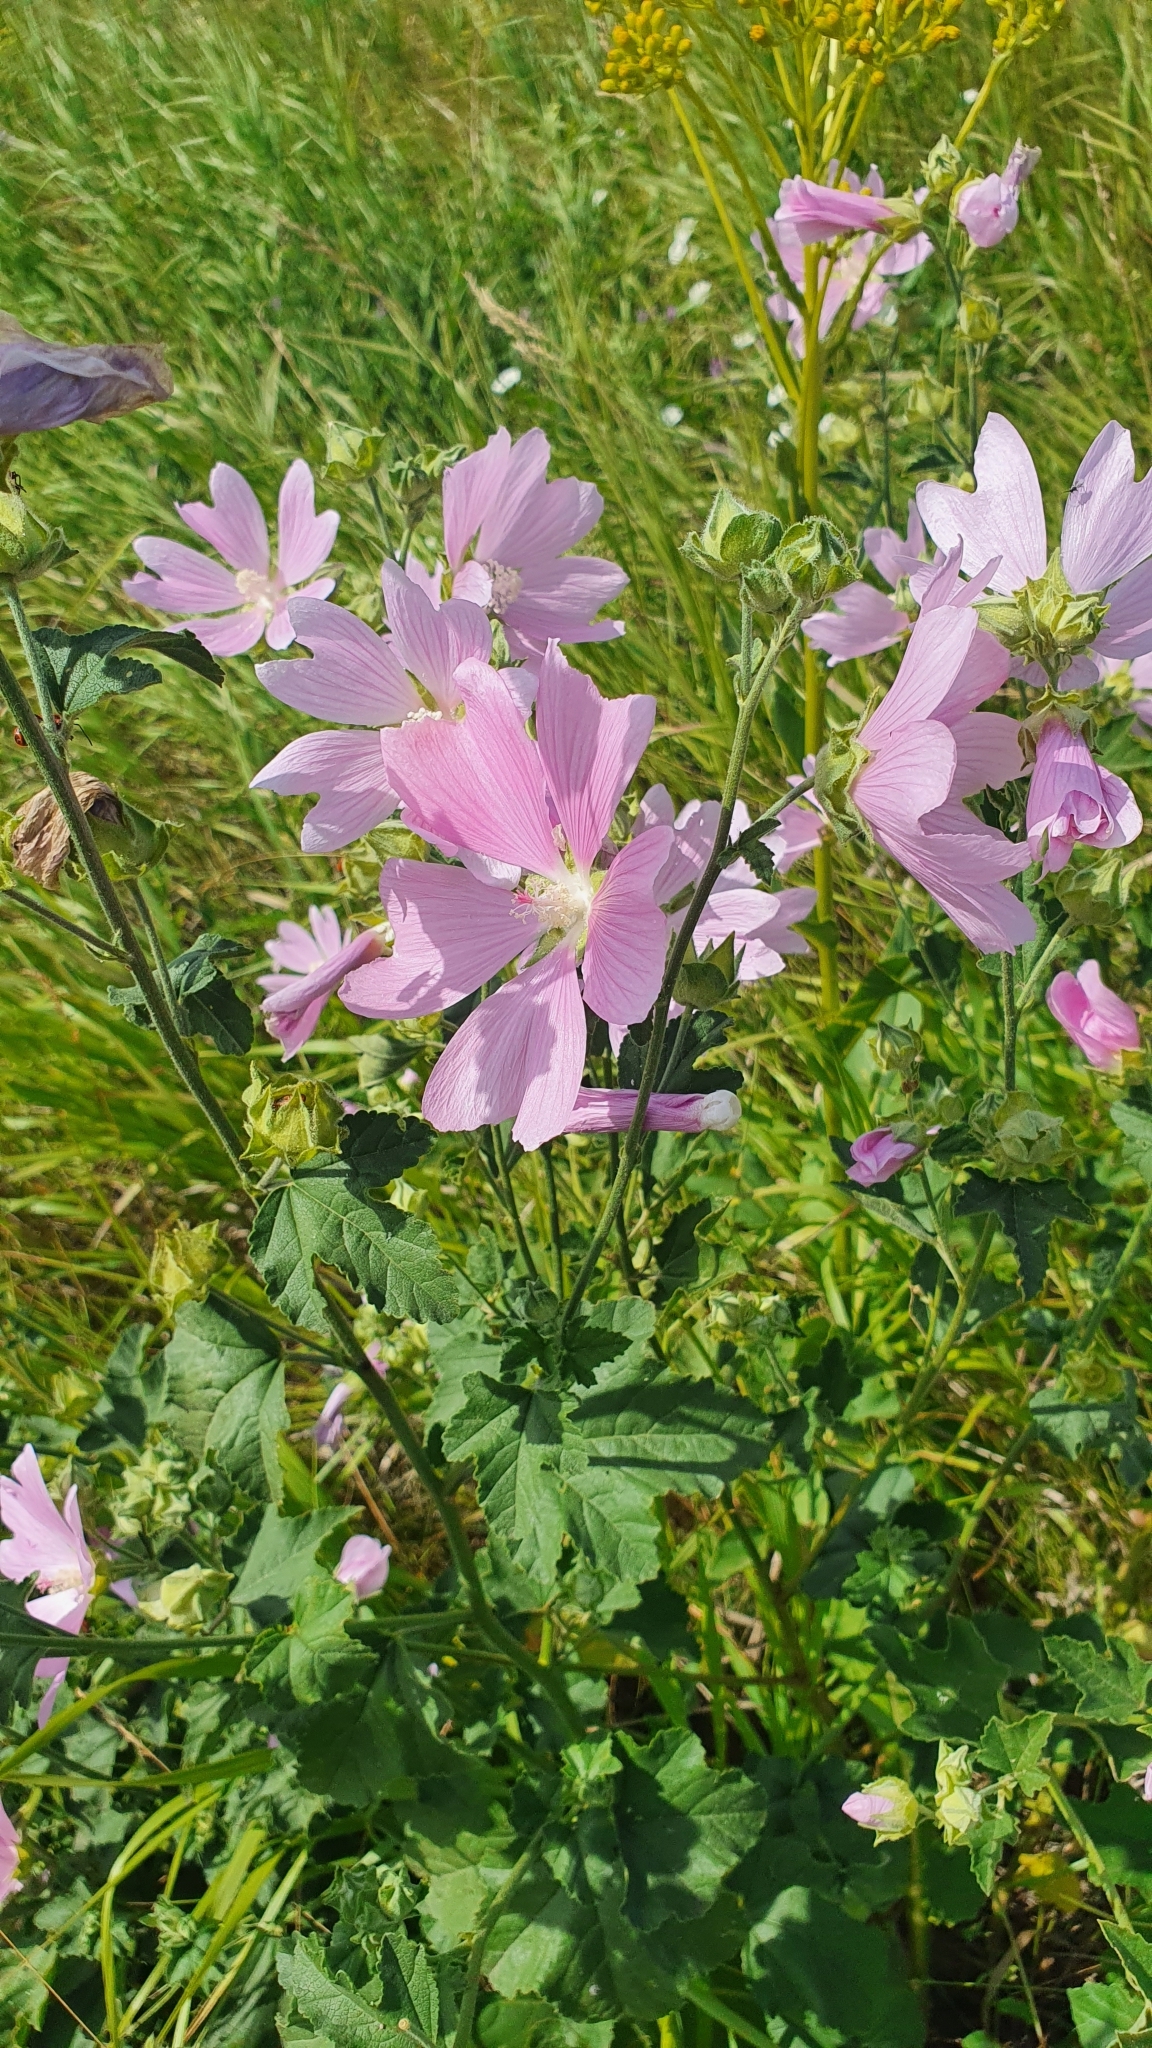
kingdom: Plantae
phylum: Tracheophyta
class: Magnoliopsida
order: Malvales
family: Malvaceae
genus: Malva
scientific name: Malva thuringiaca
